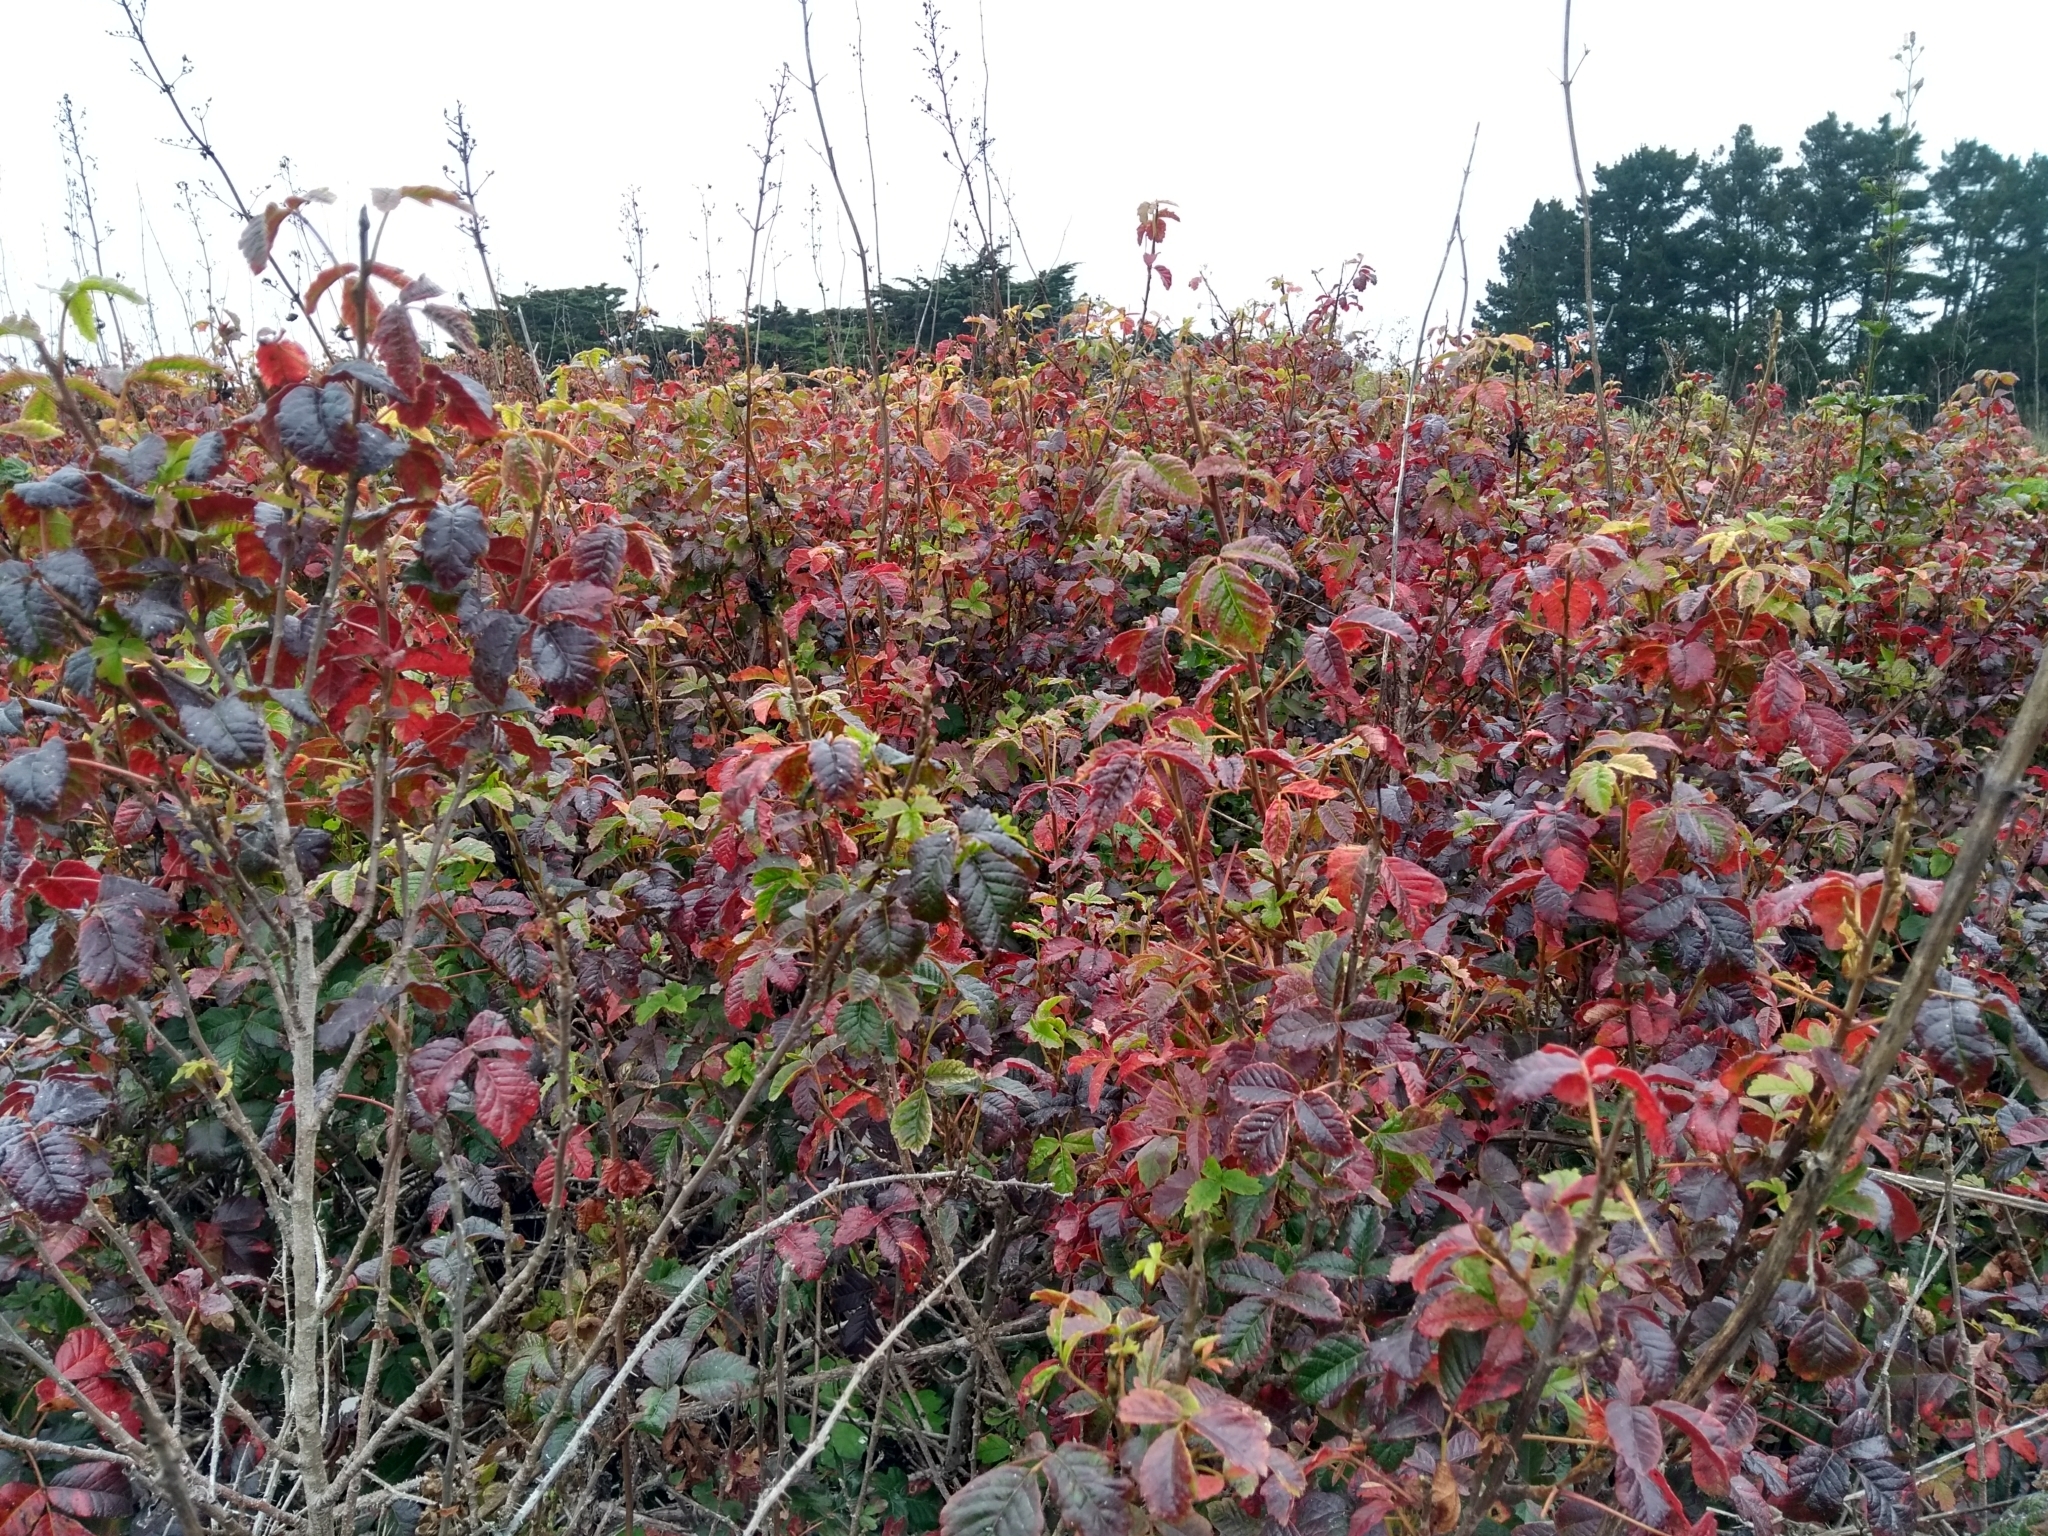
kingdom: Plantae
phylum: Tracheophyta
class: Magnoliopsida
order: Sapindales
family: Anacardiaceae
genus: Toxicodendron
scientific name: Toxicodendron diversilobum
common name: Pacific poison-oak
